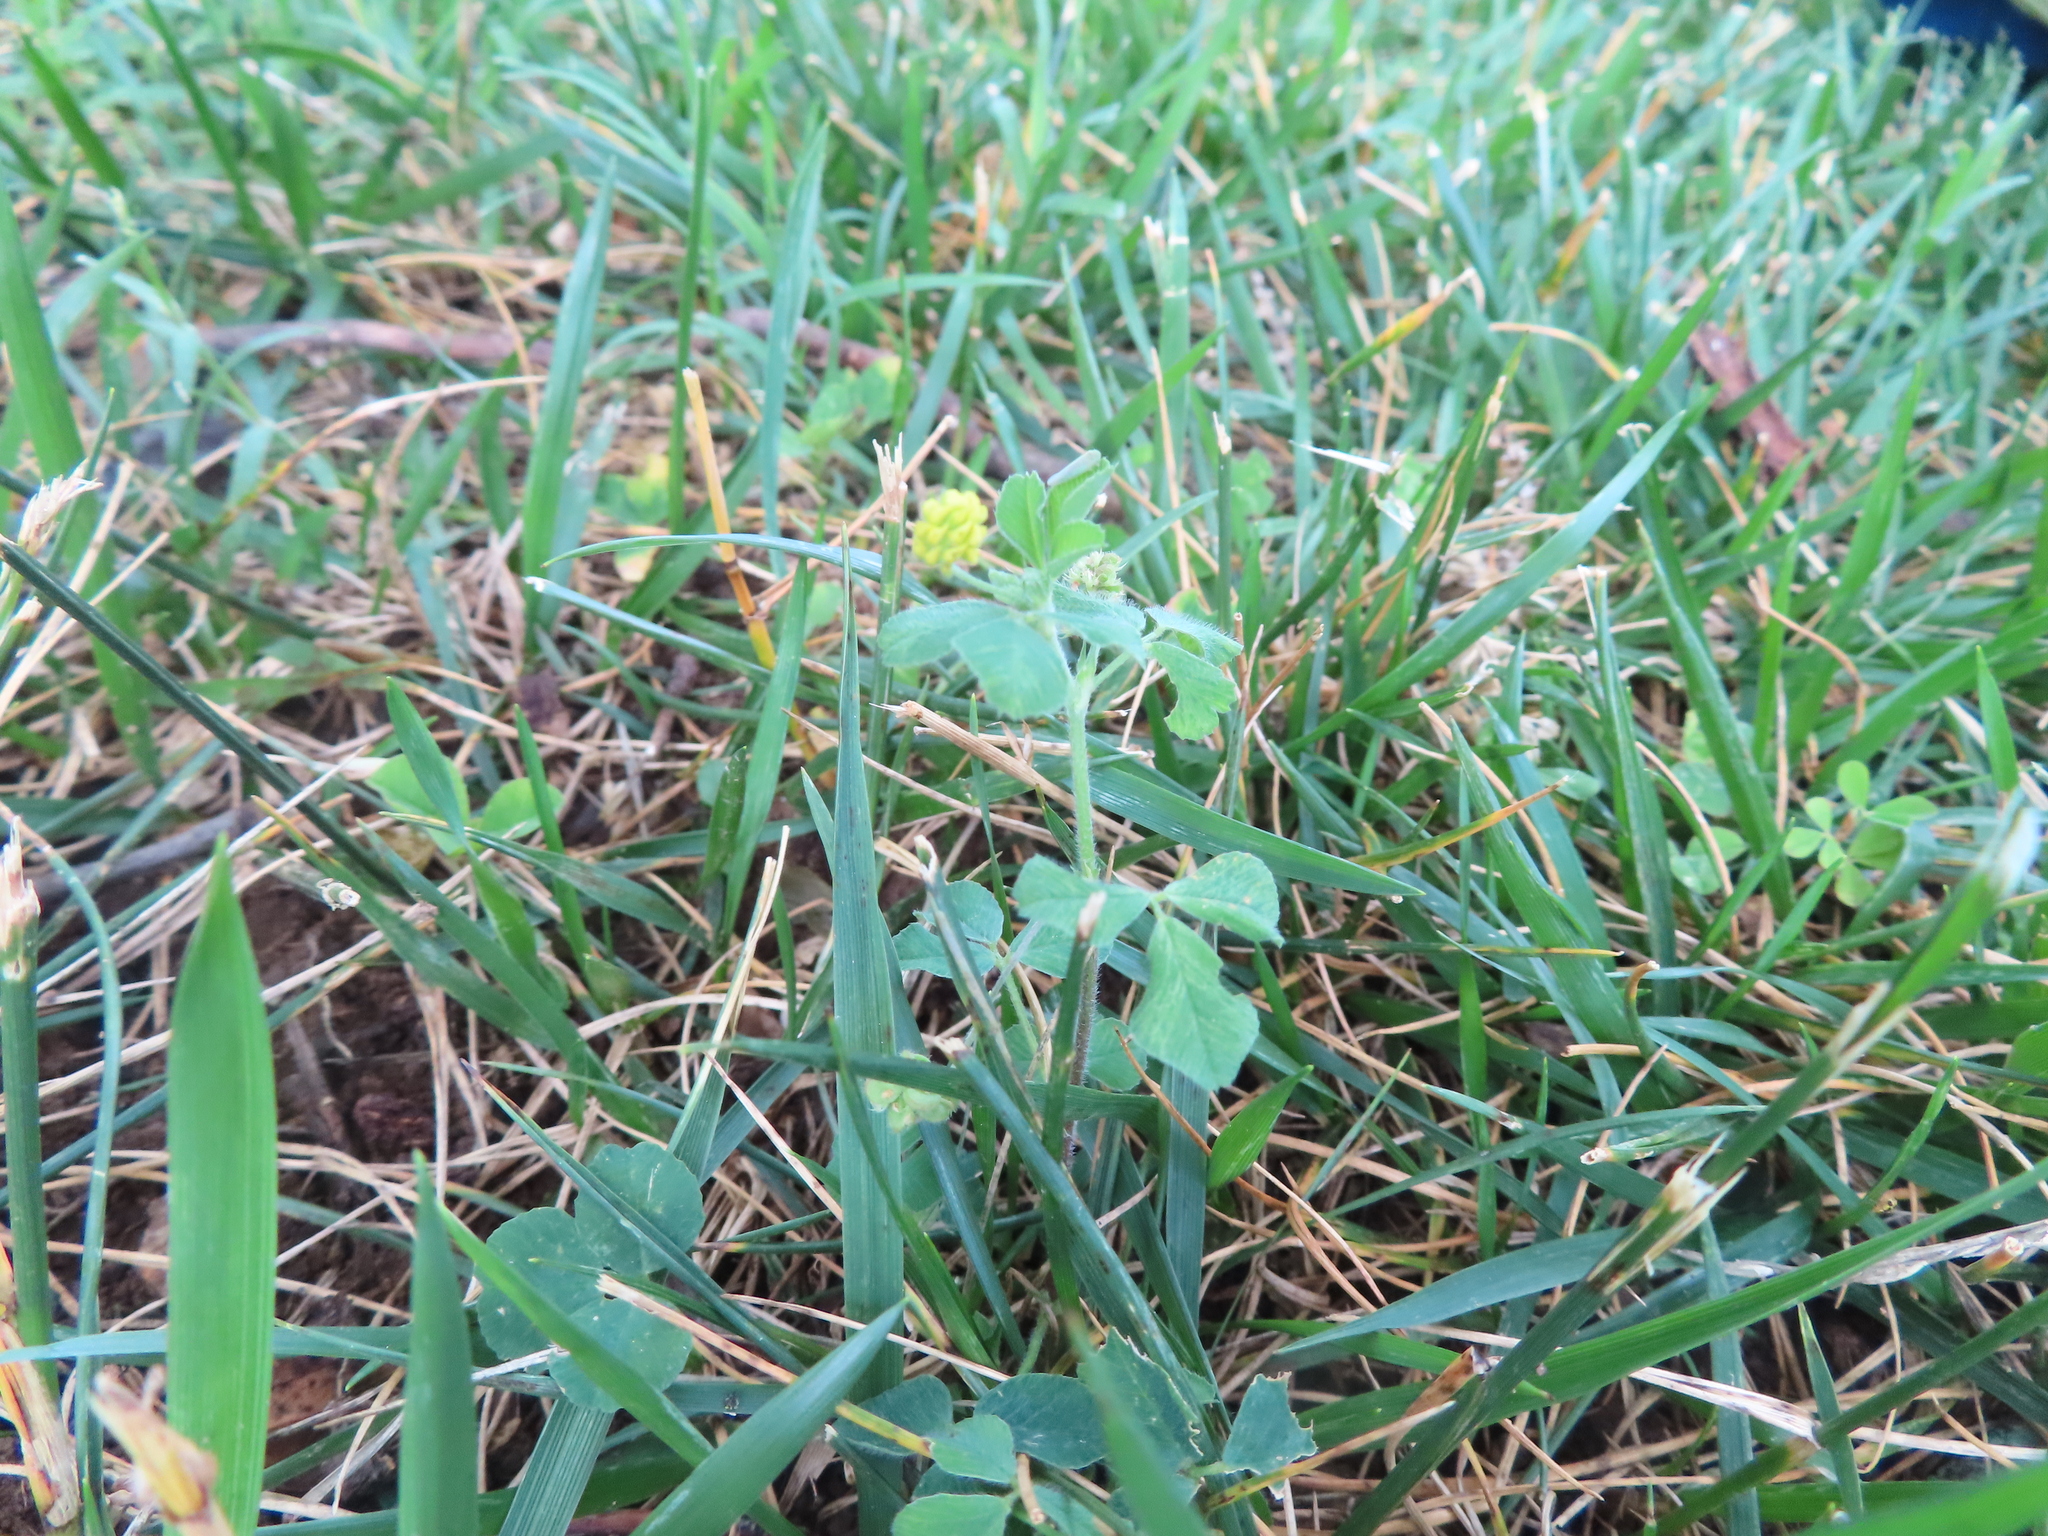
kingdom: Plantae
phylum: Tracheophyta
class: Magnoliopsida
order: Fabales
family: Fabaceae
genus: Medicago
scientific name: Medicago lupulina
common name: Black medick
